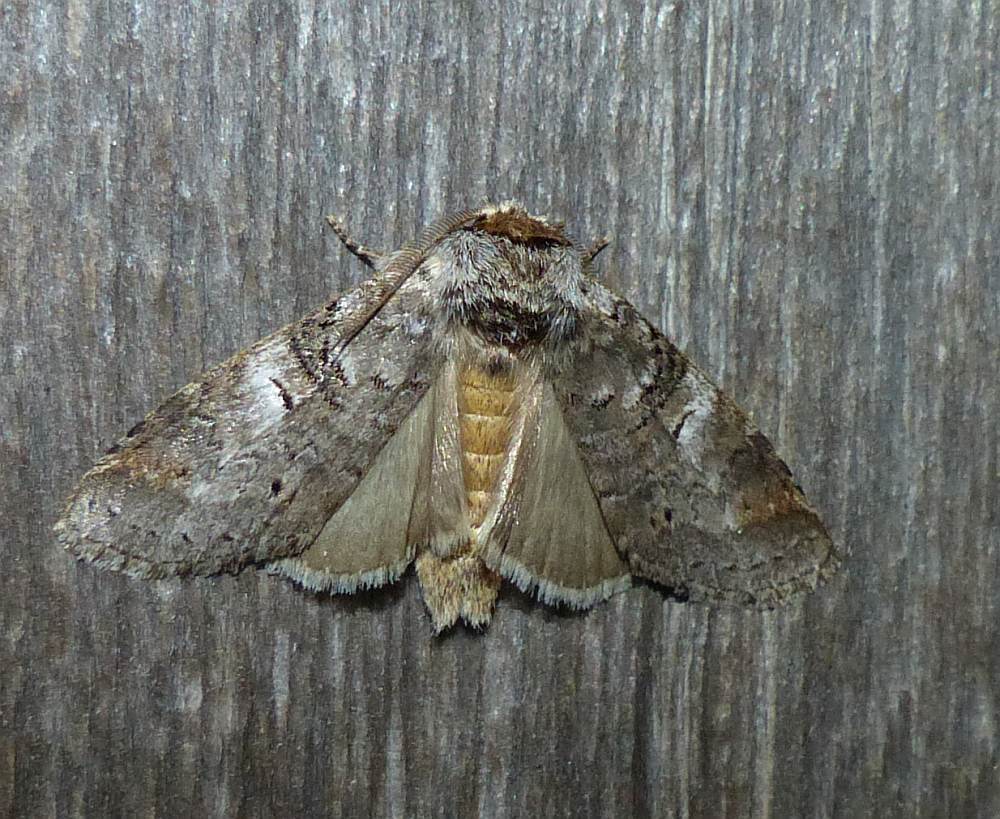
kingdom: Animalia
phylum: Arthropoda
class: Insecta
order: Lepidoptera
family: Notodontidae
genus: Ellida
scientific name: Ellida caniplaga
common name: Linden prominent
